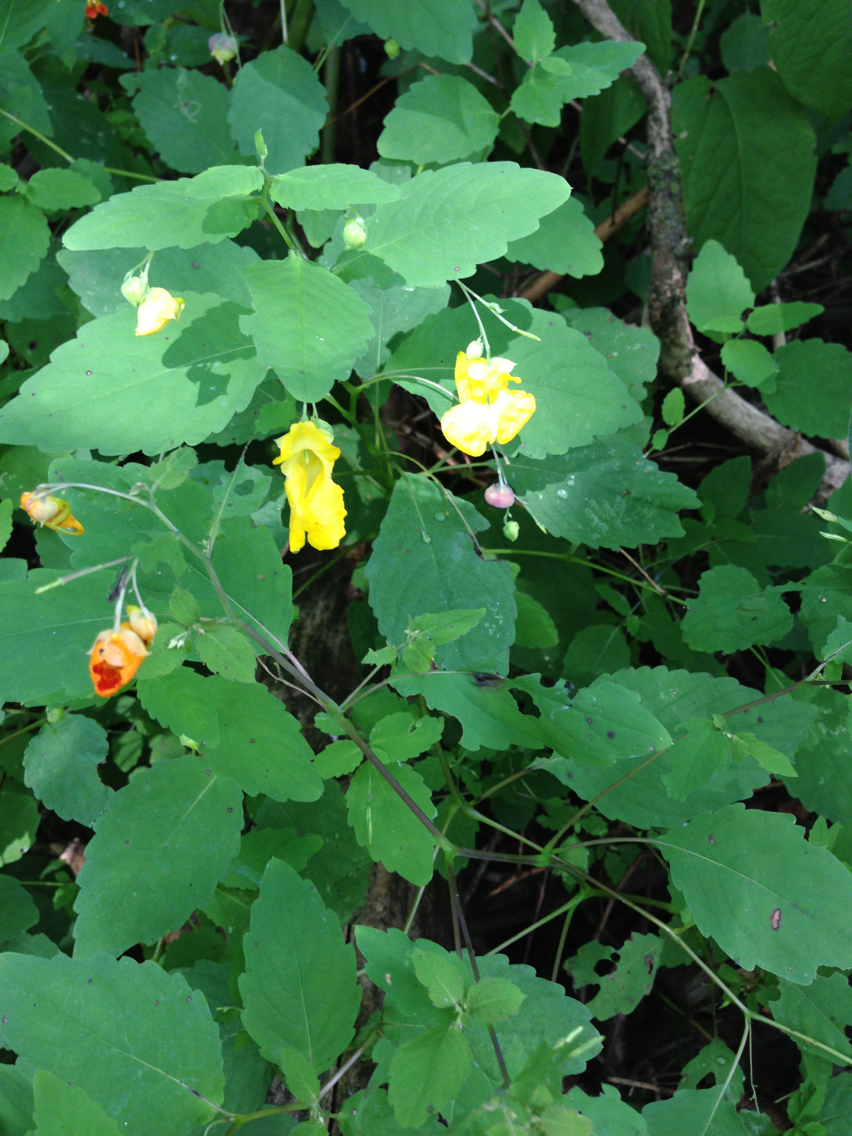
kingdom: Plantae
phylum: Tracheophyta
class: Magnoliopsida
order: Ericales
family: Balsaminaceae
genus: Impatiens
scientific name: Impatiens pallida
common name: Pale snapweed
